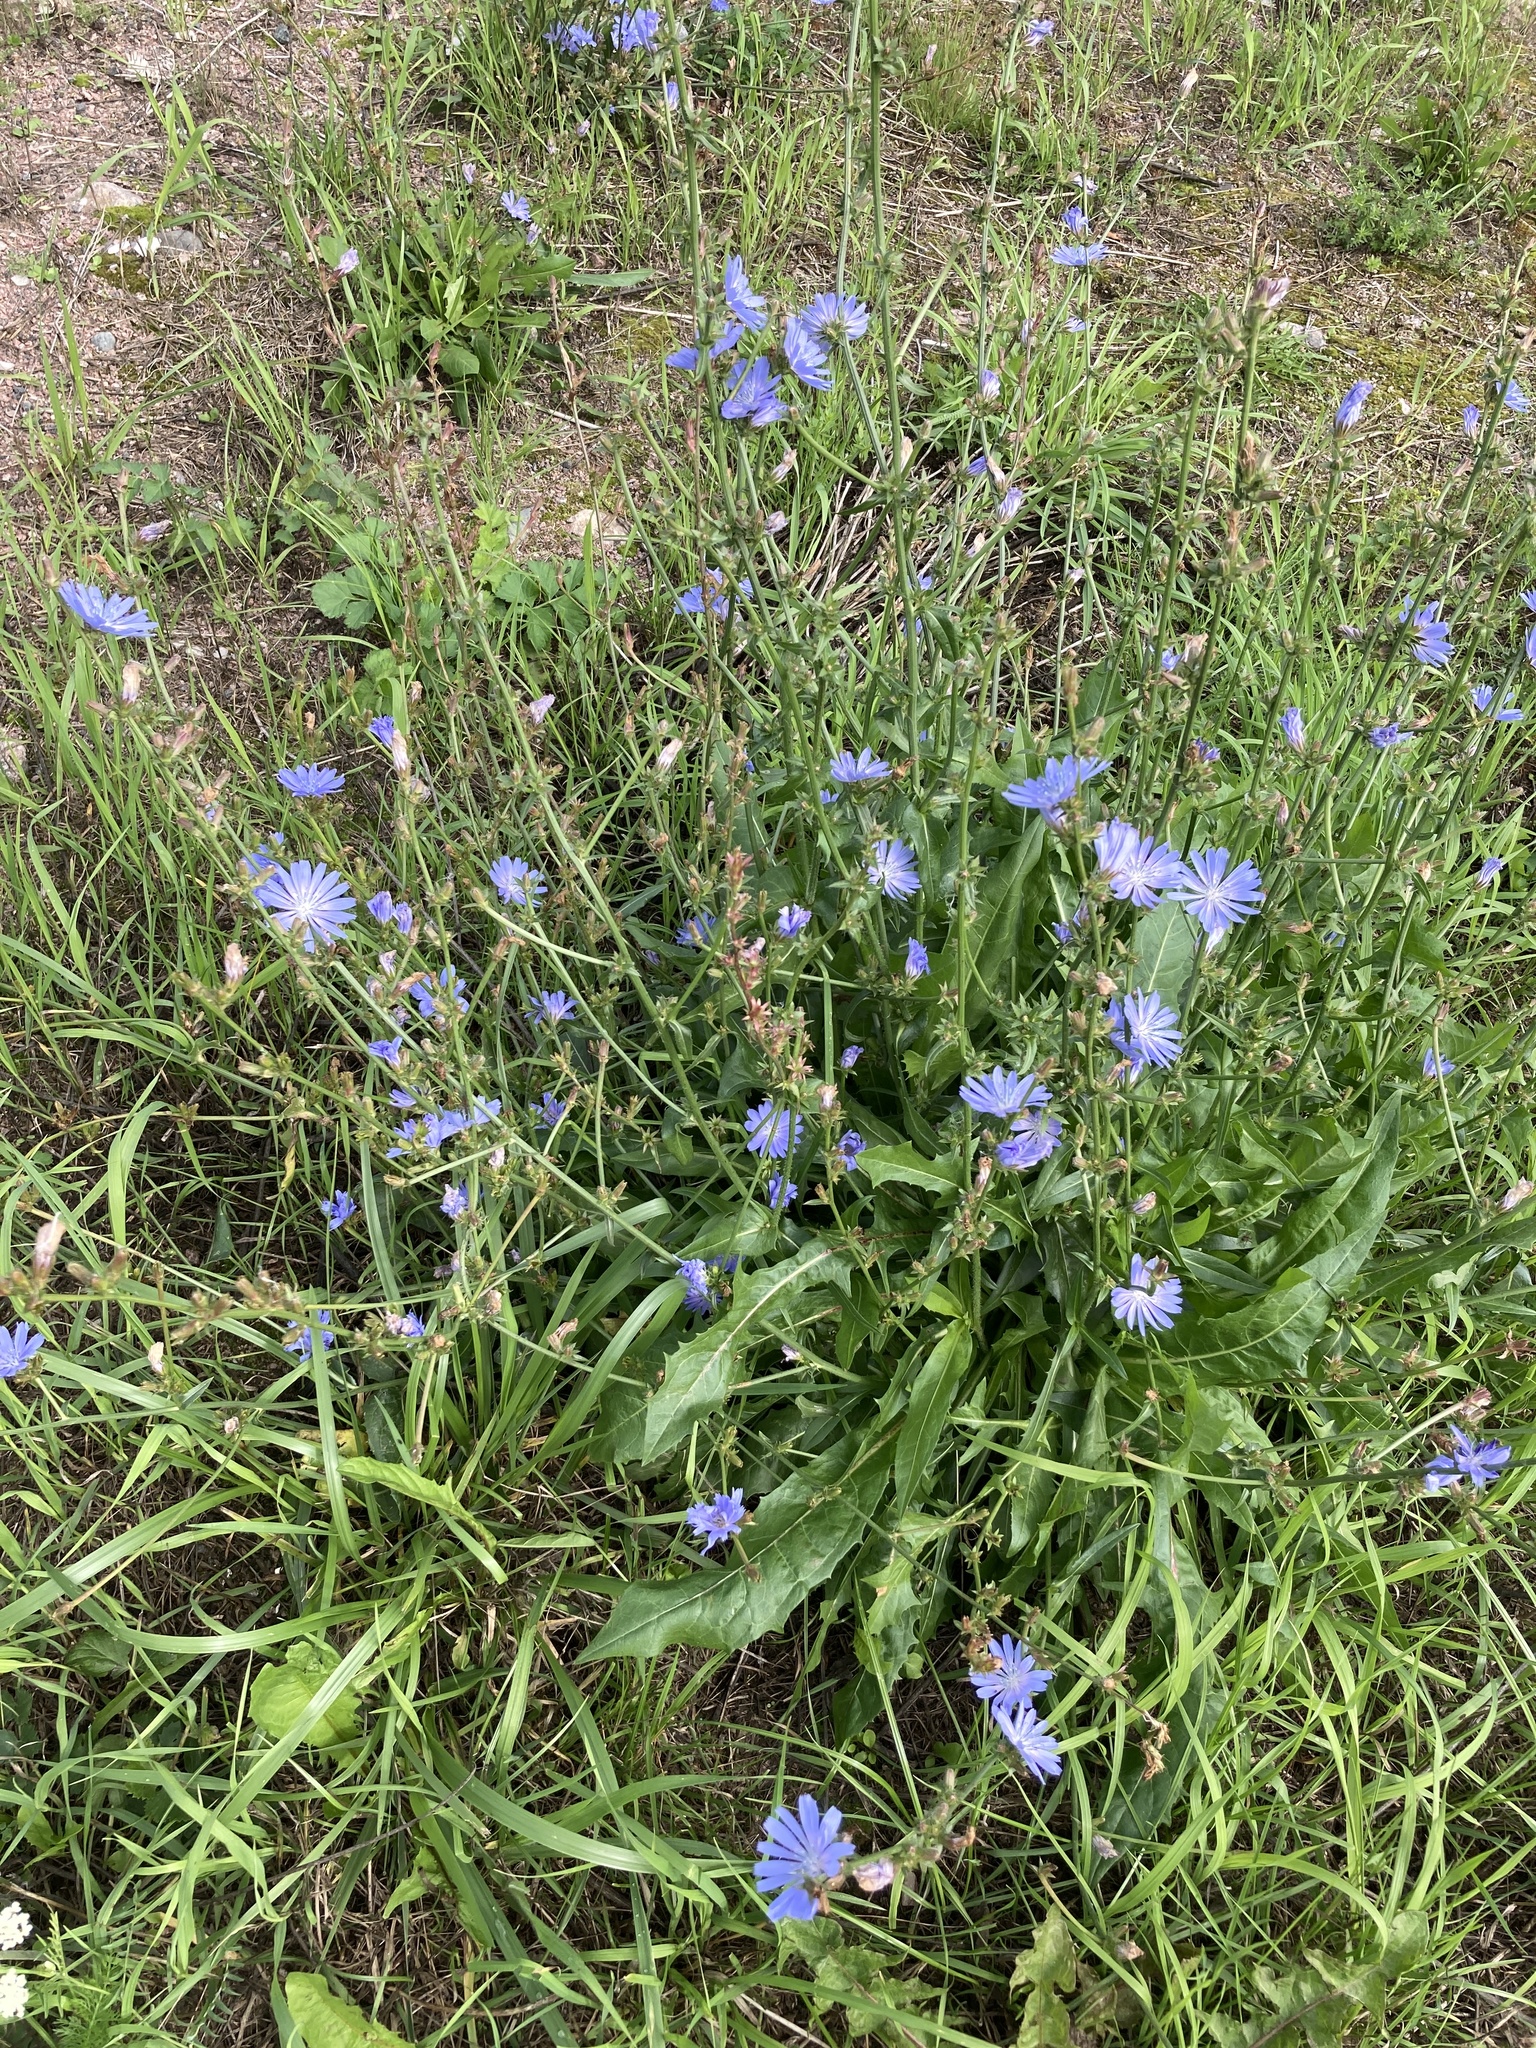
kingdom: Plantae
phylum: Tracheophyta
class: Magnoliopsida
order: Asterales
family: Asteraceae
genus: Cichorium
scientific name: Cichorium intybus
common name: Chicory
